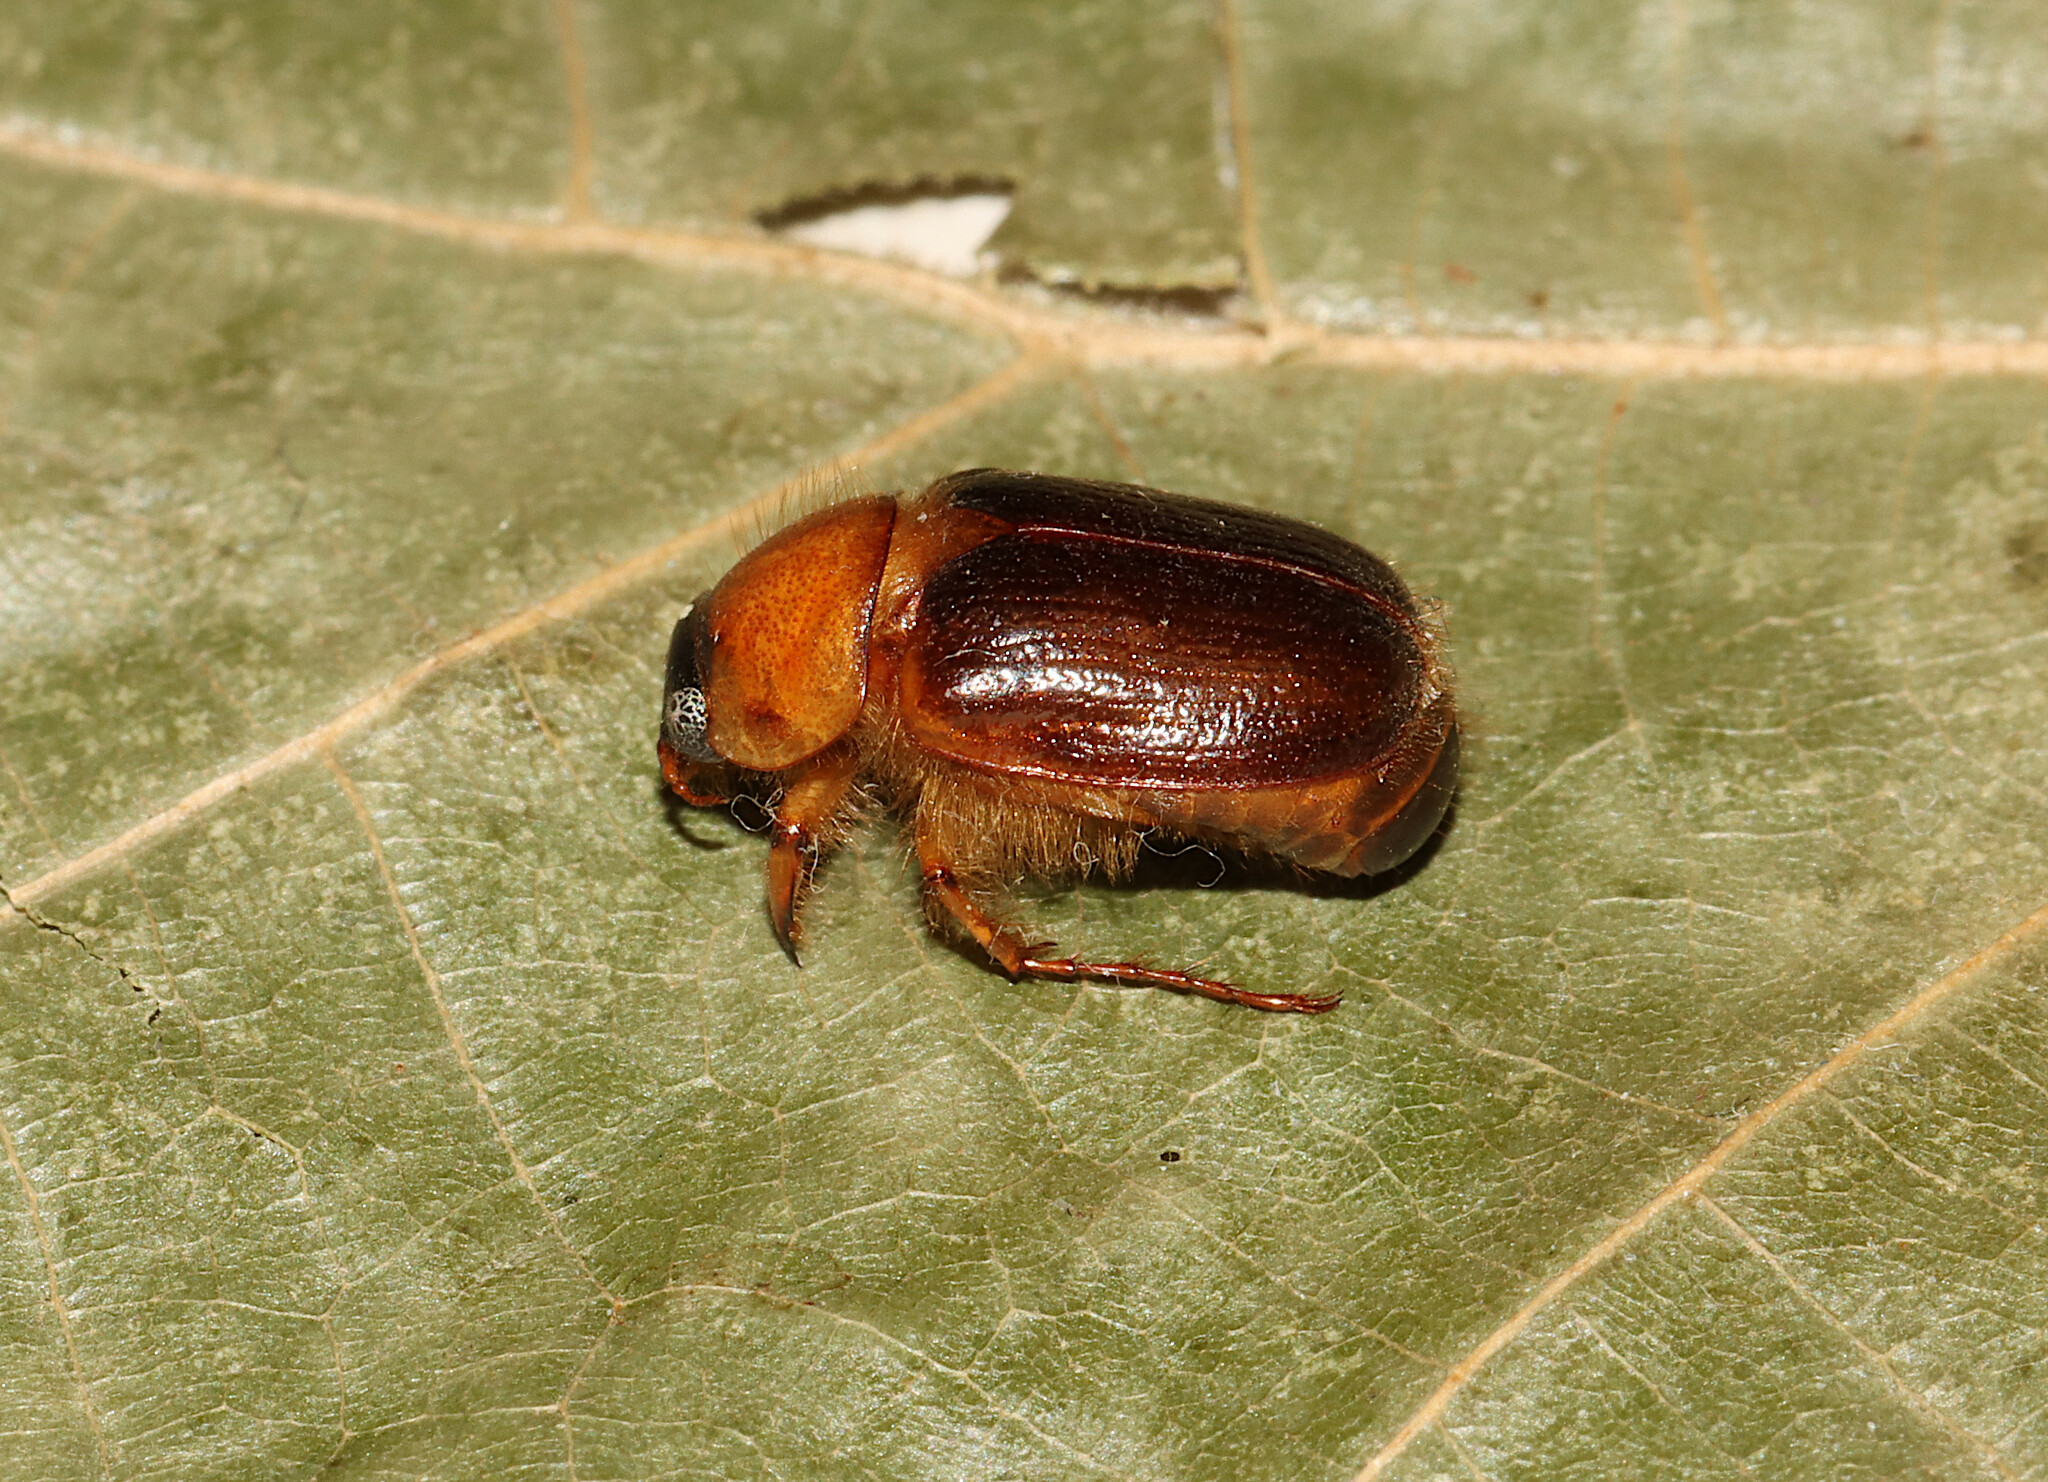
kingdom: Animalia
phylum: Arthropoda
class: Insecta
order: Coleoptera
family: Scarabaeidae
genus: Cyclocephala
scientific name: Cyclocephala robusta
